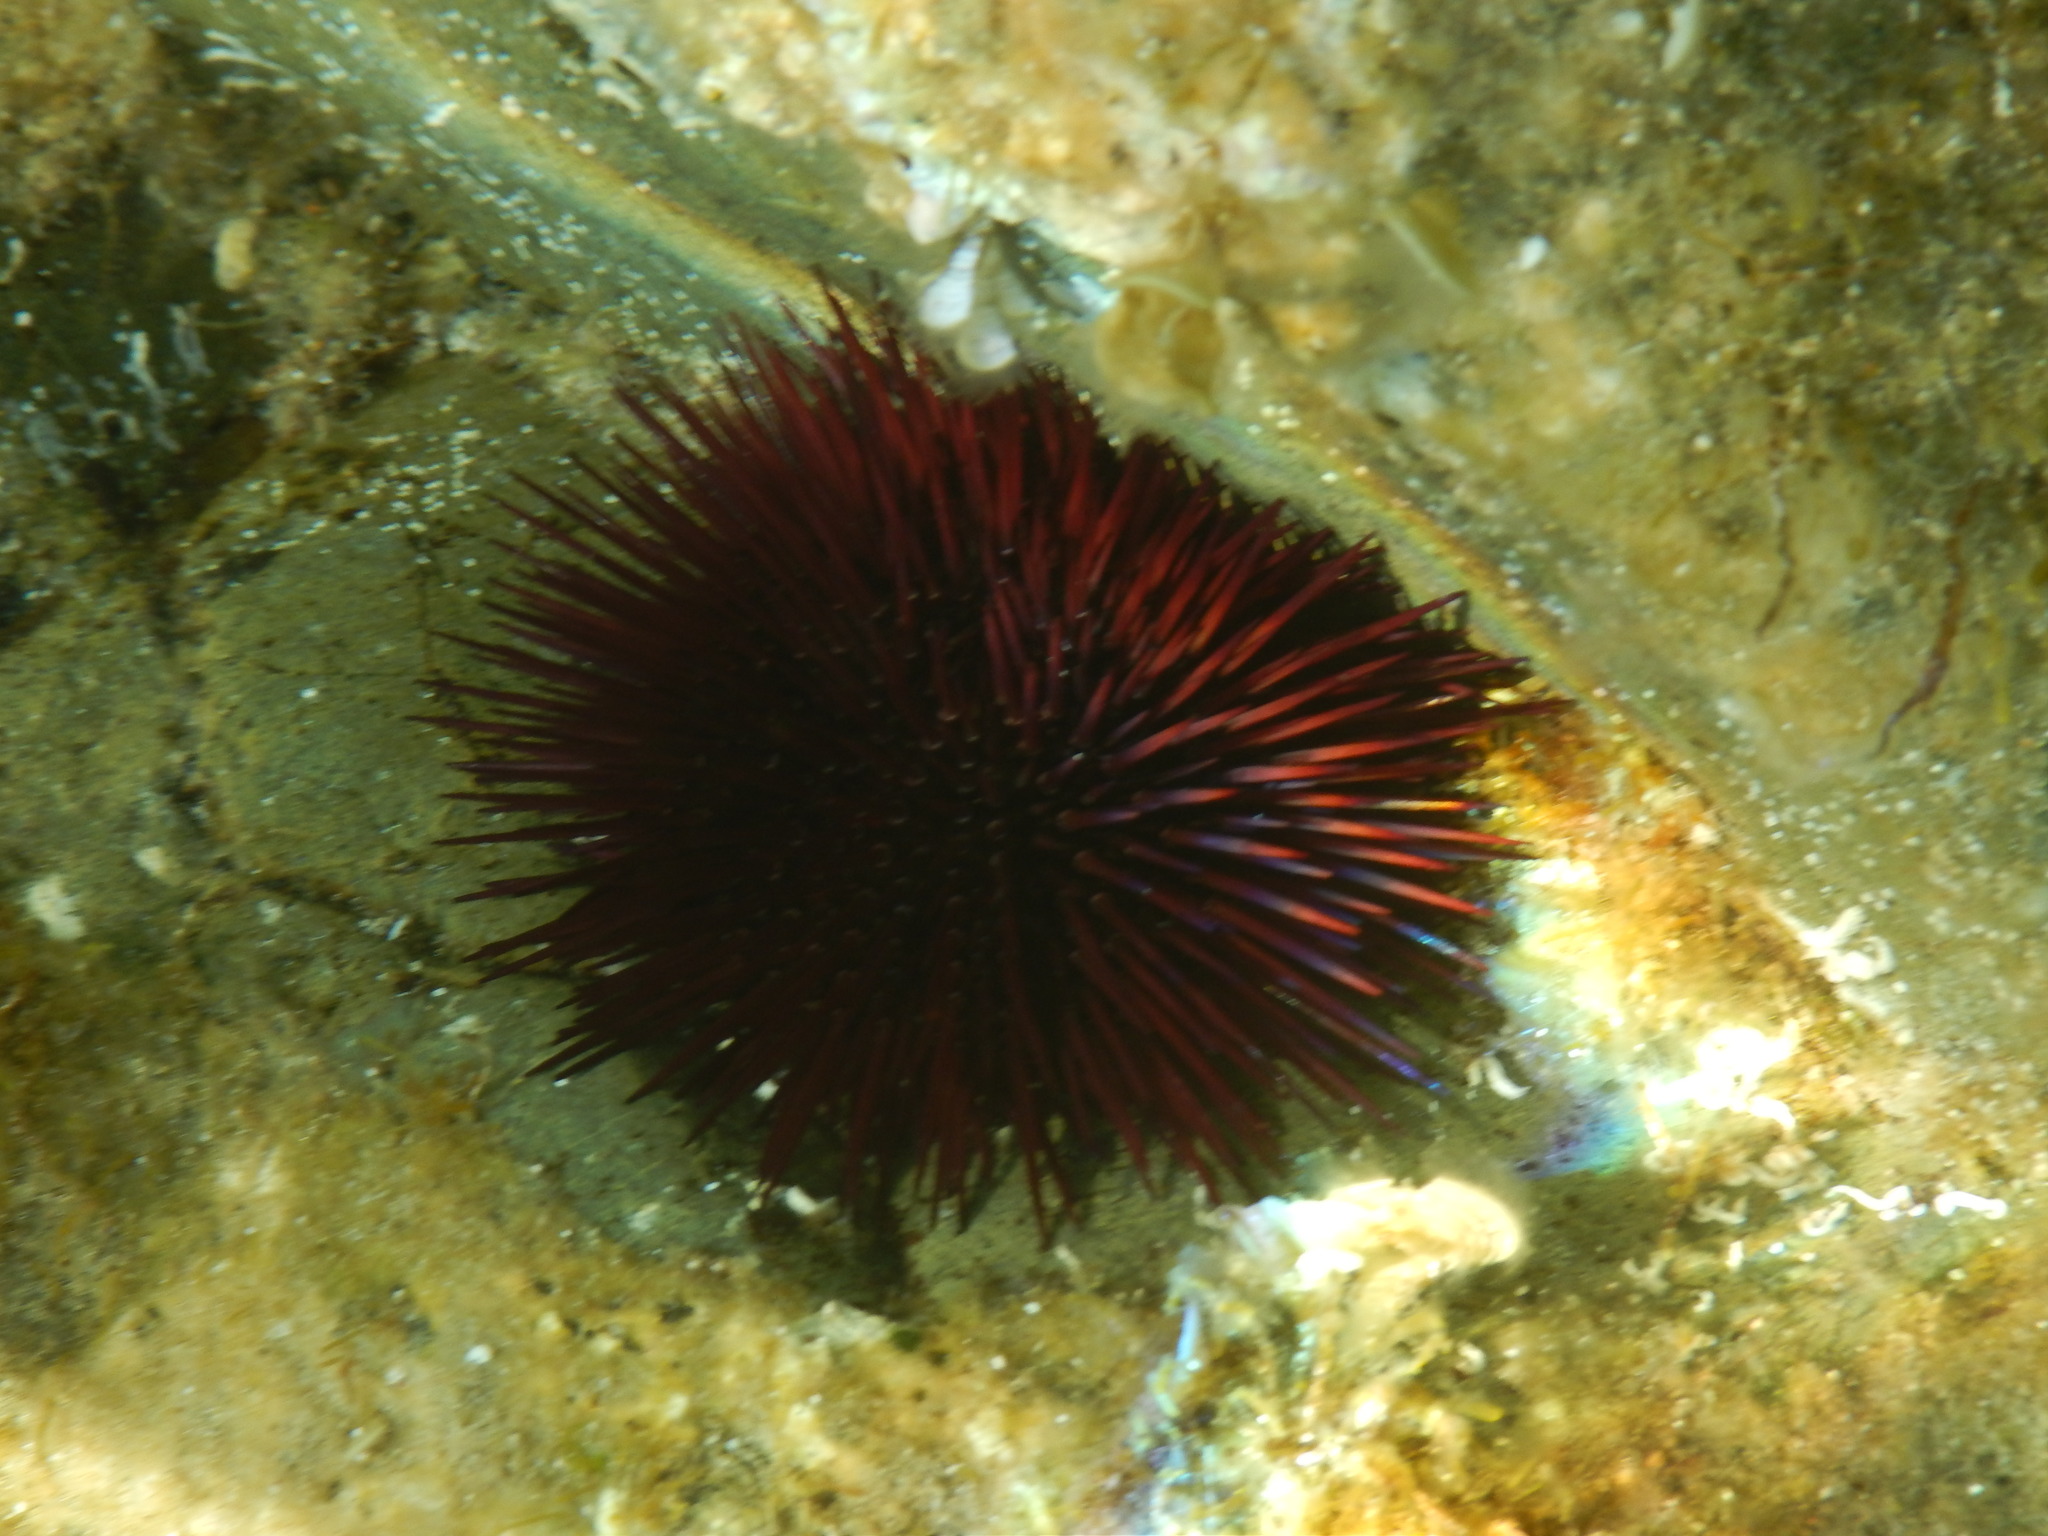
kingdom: Animalia
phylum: Echinodermata
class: Echinoidea
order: Camarodonta
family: Parechinidae
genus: Paracentrotus
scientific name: Paracentrotus lividus
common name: Purple sea urchin
